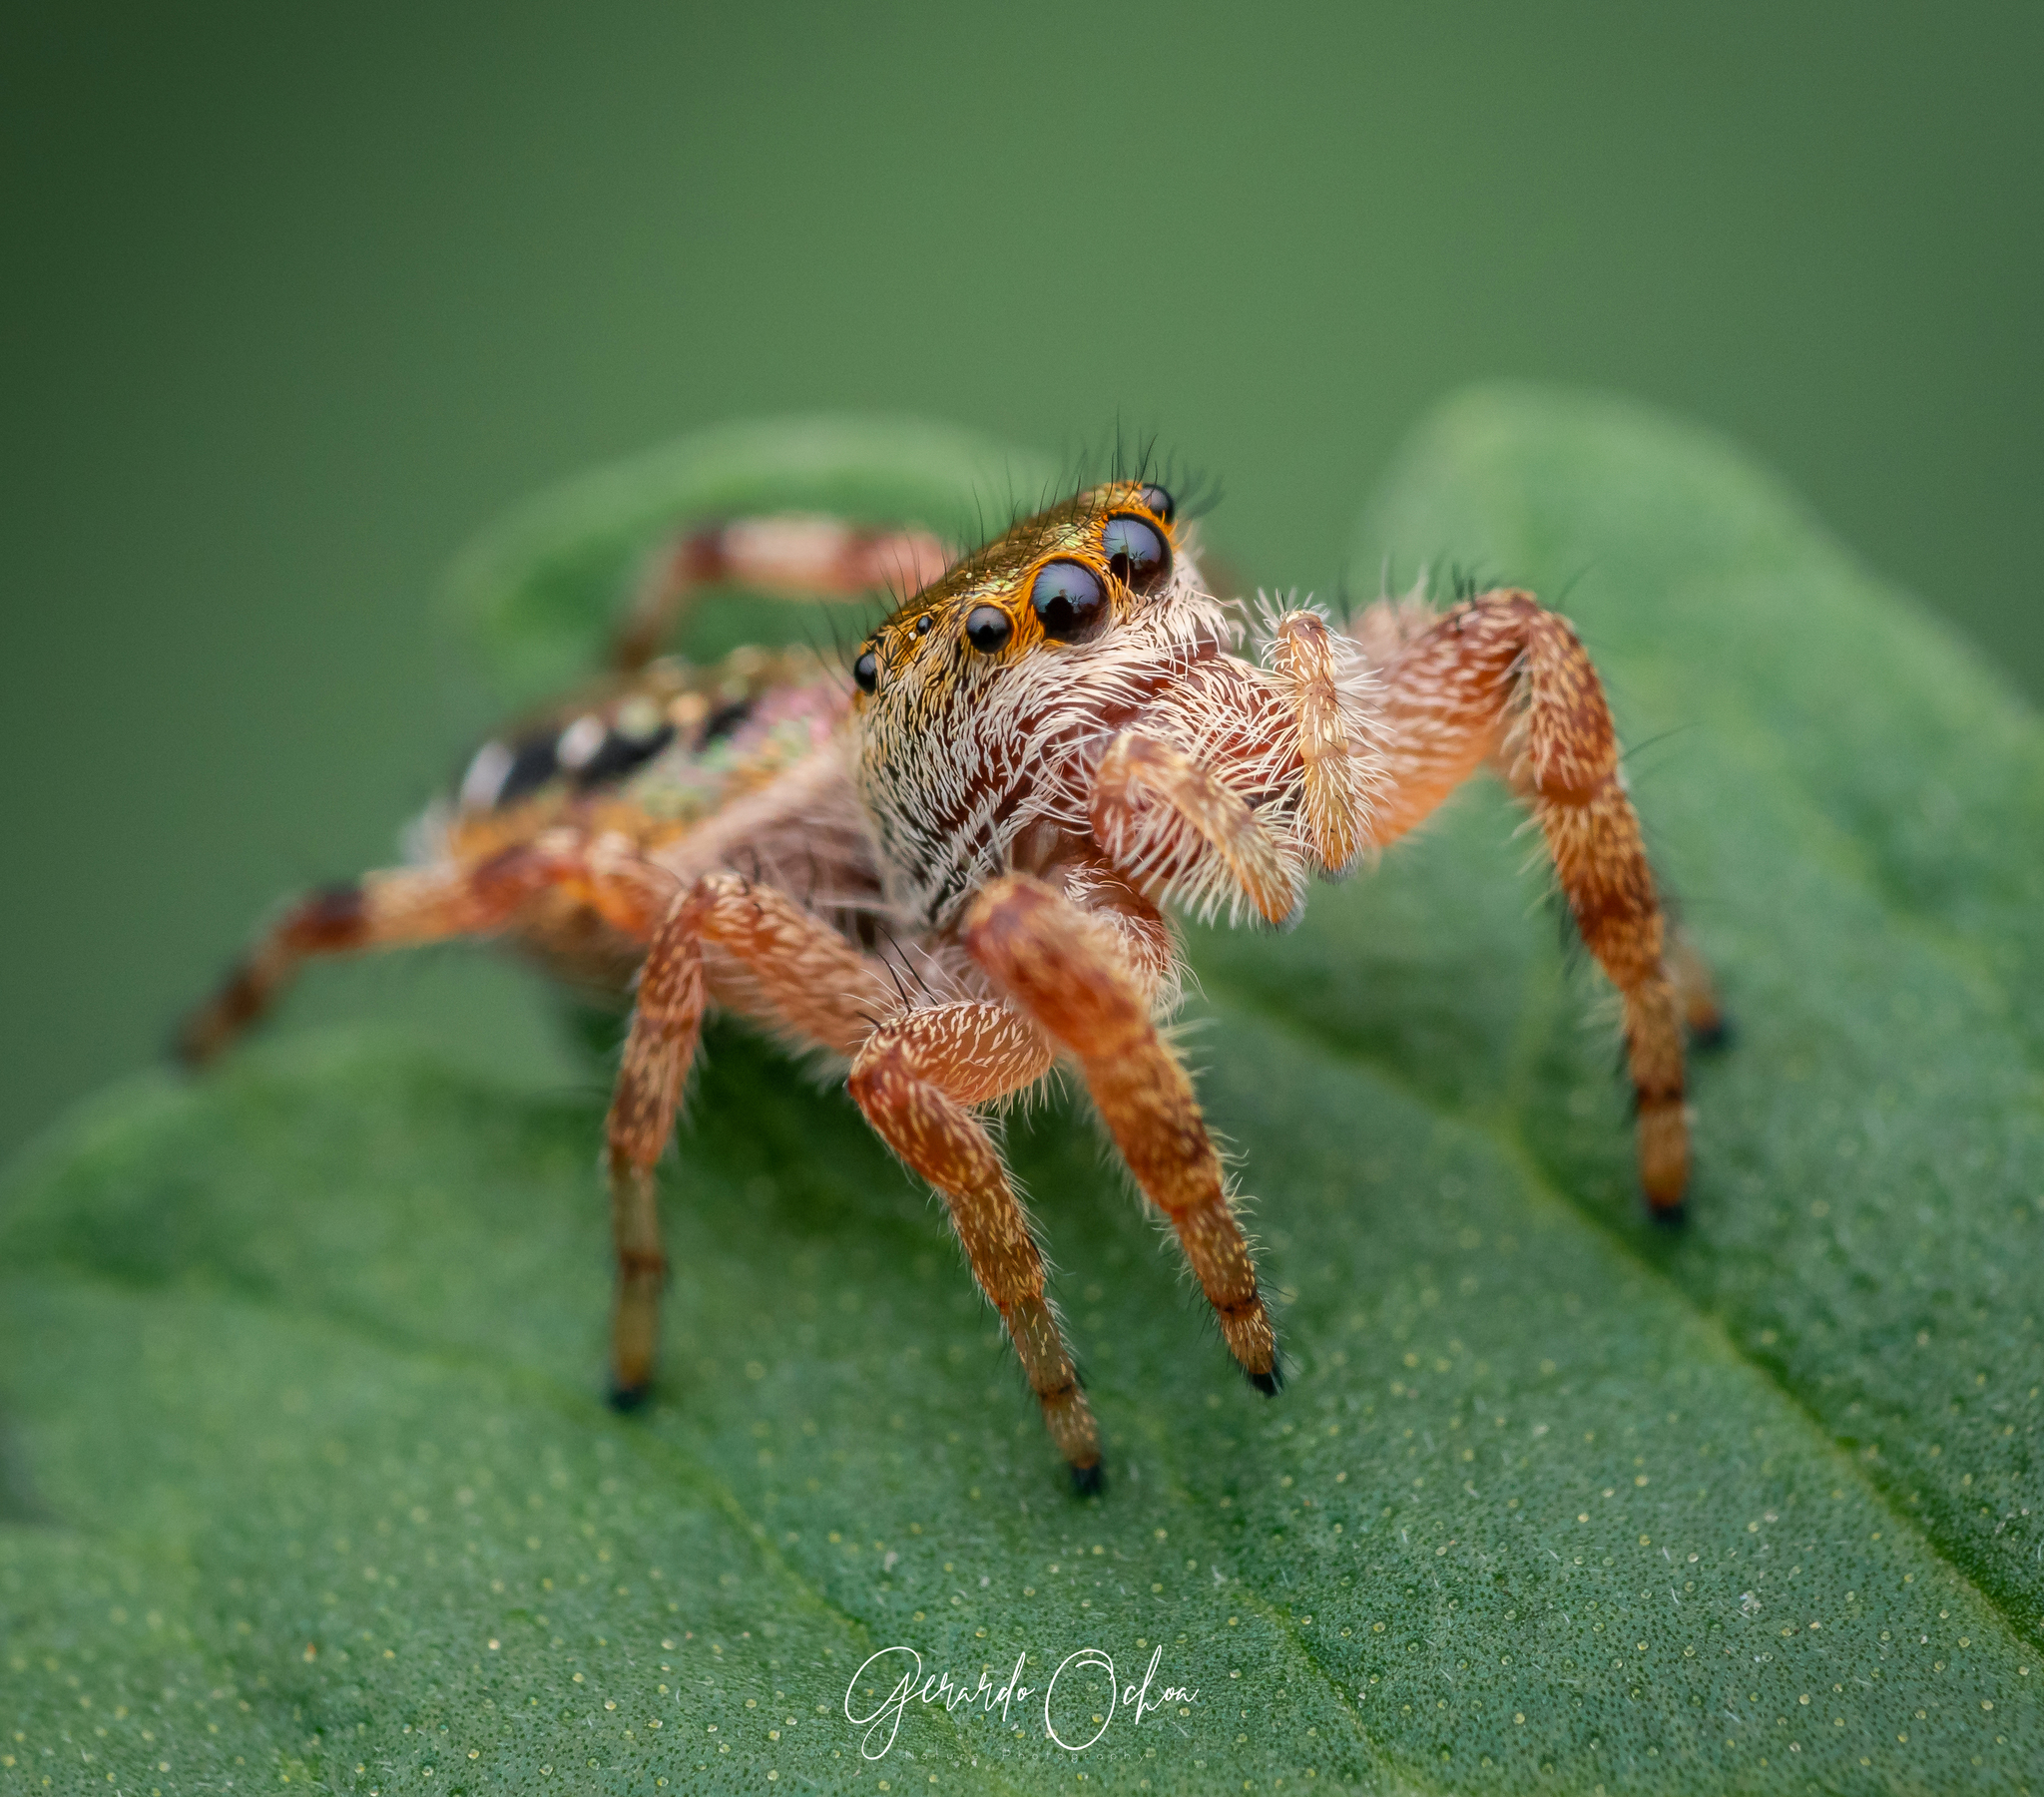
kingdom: Animalia
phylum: Arthropoda
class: Arachnida
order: Araneae
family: Salticidae
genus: Paraphidippus
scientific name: Paraphidippus aurantius
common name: Jumping spiders
